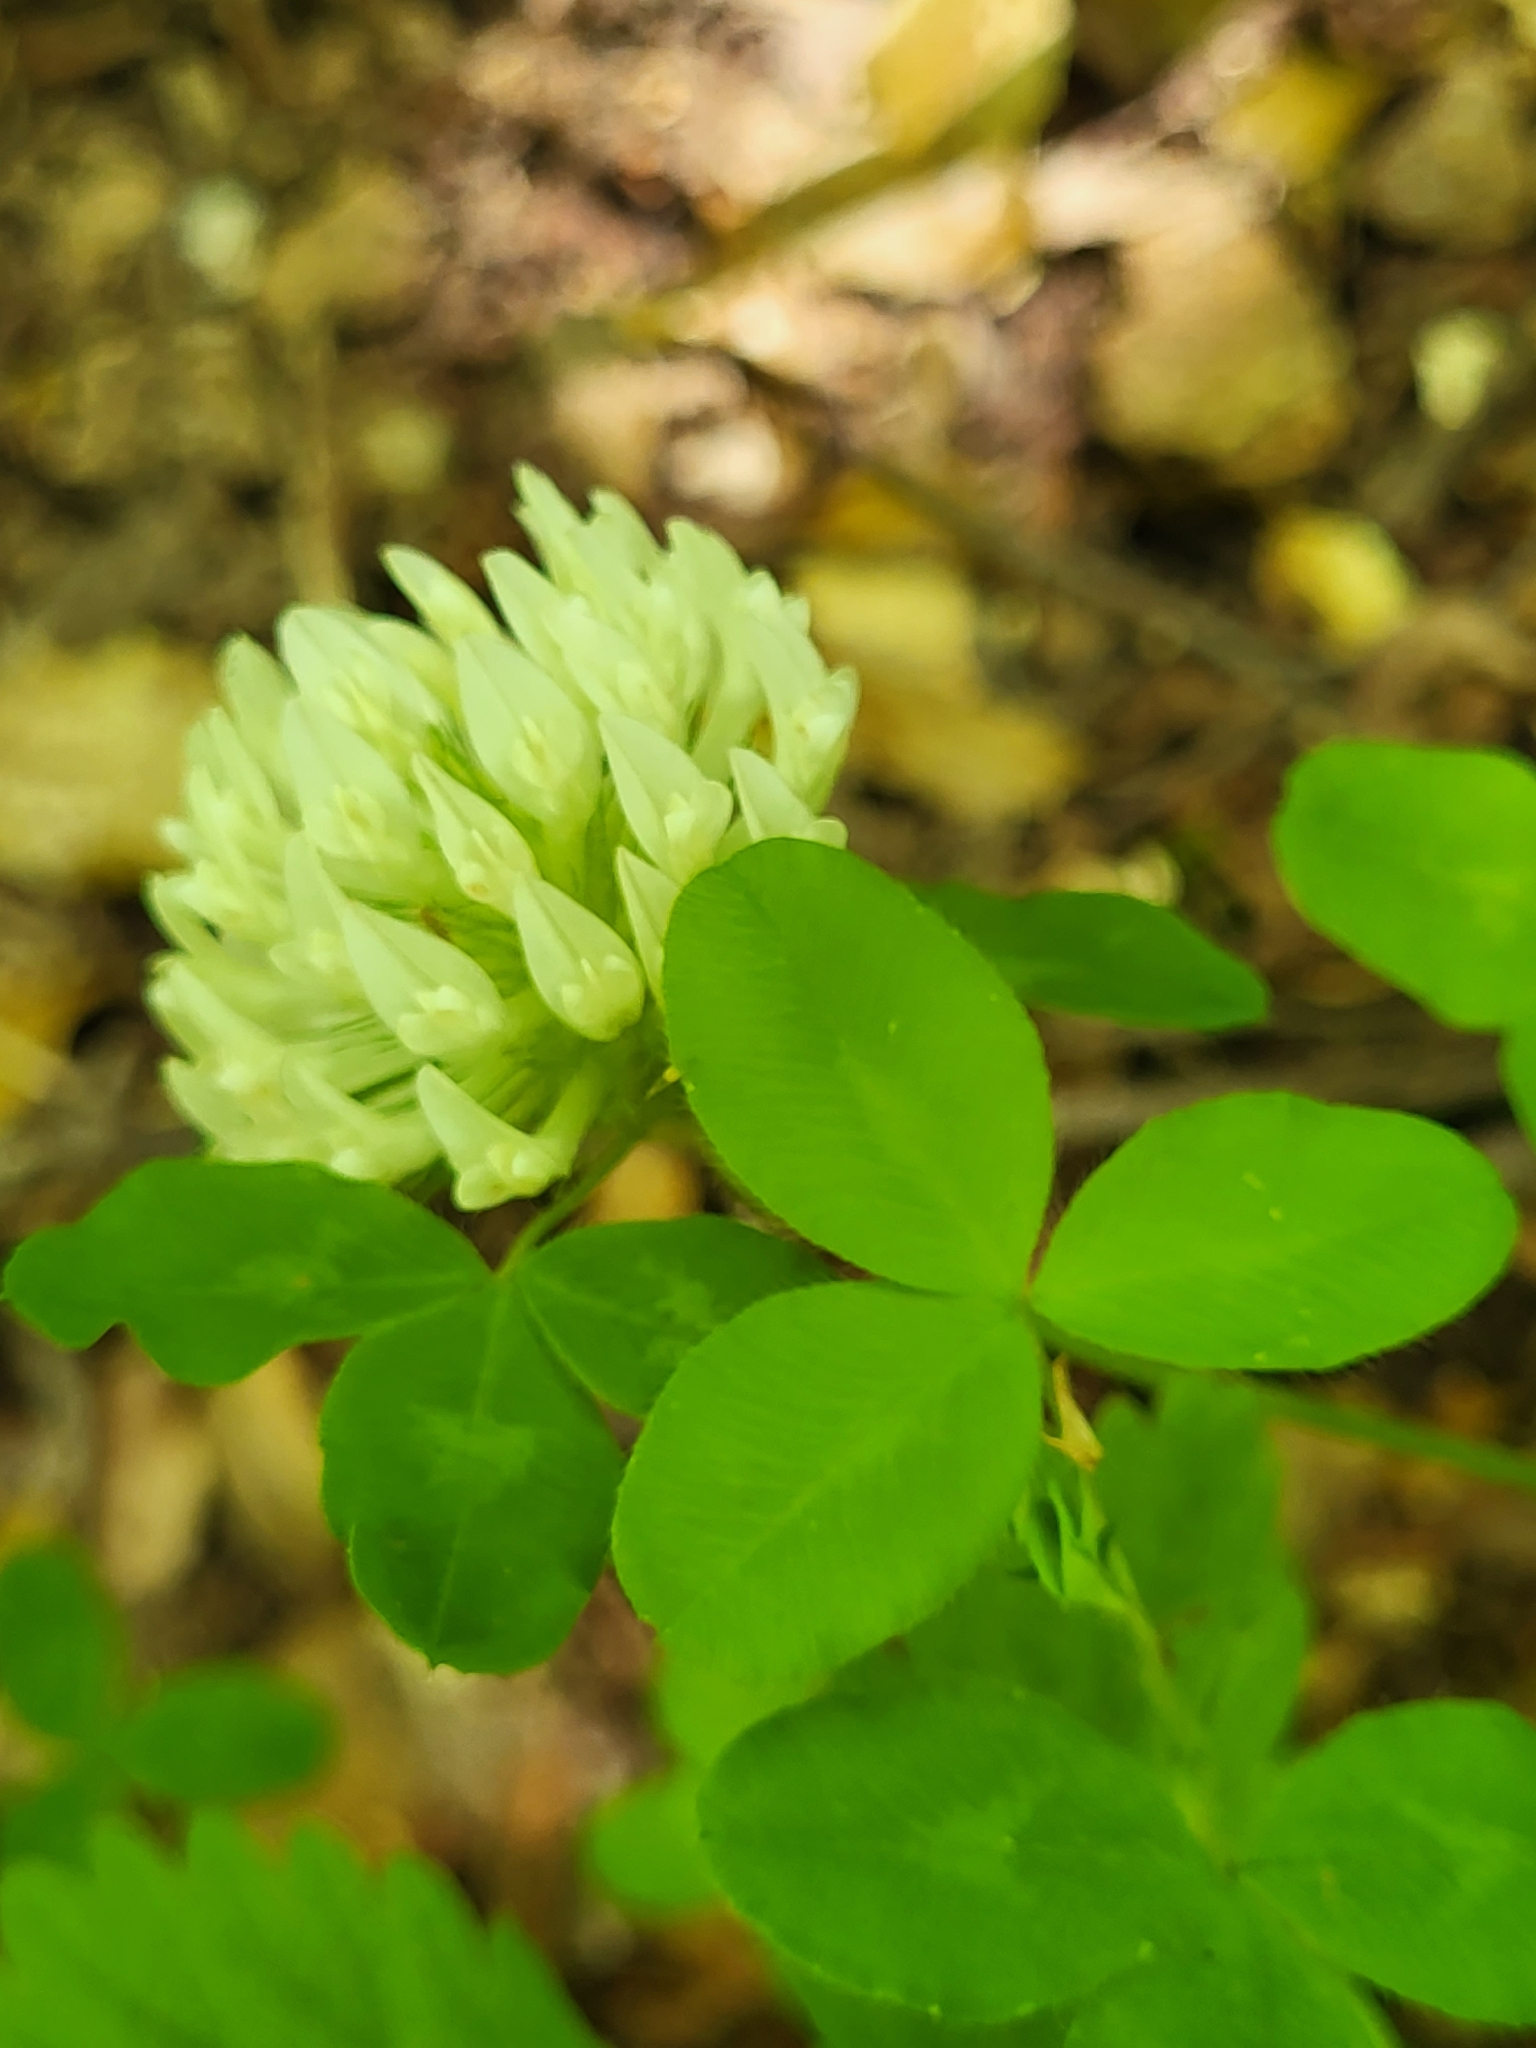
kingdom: Plantae
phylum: Tracheophyta
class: Magnoliopsida
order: Fabales
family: Fabaceae
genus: Trifolium
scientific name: Trifolium pignantii
